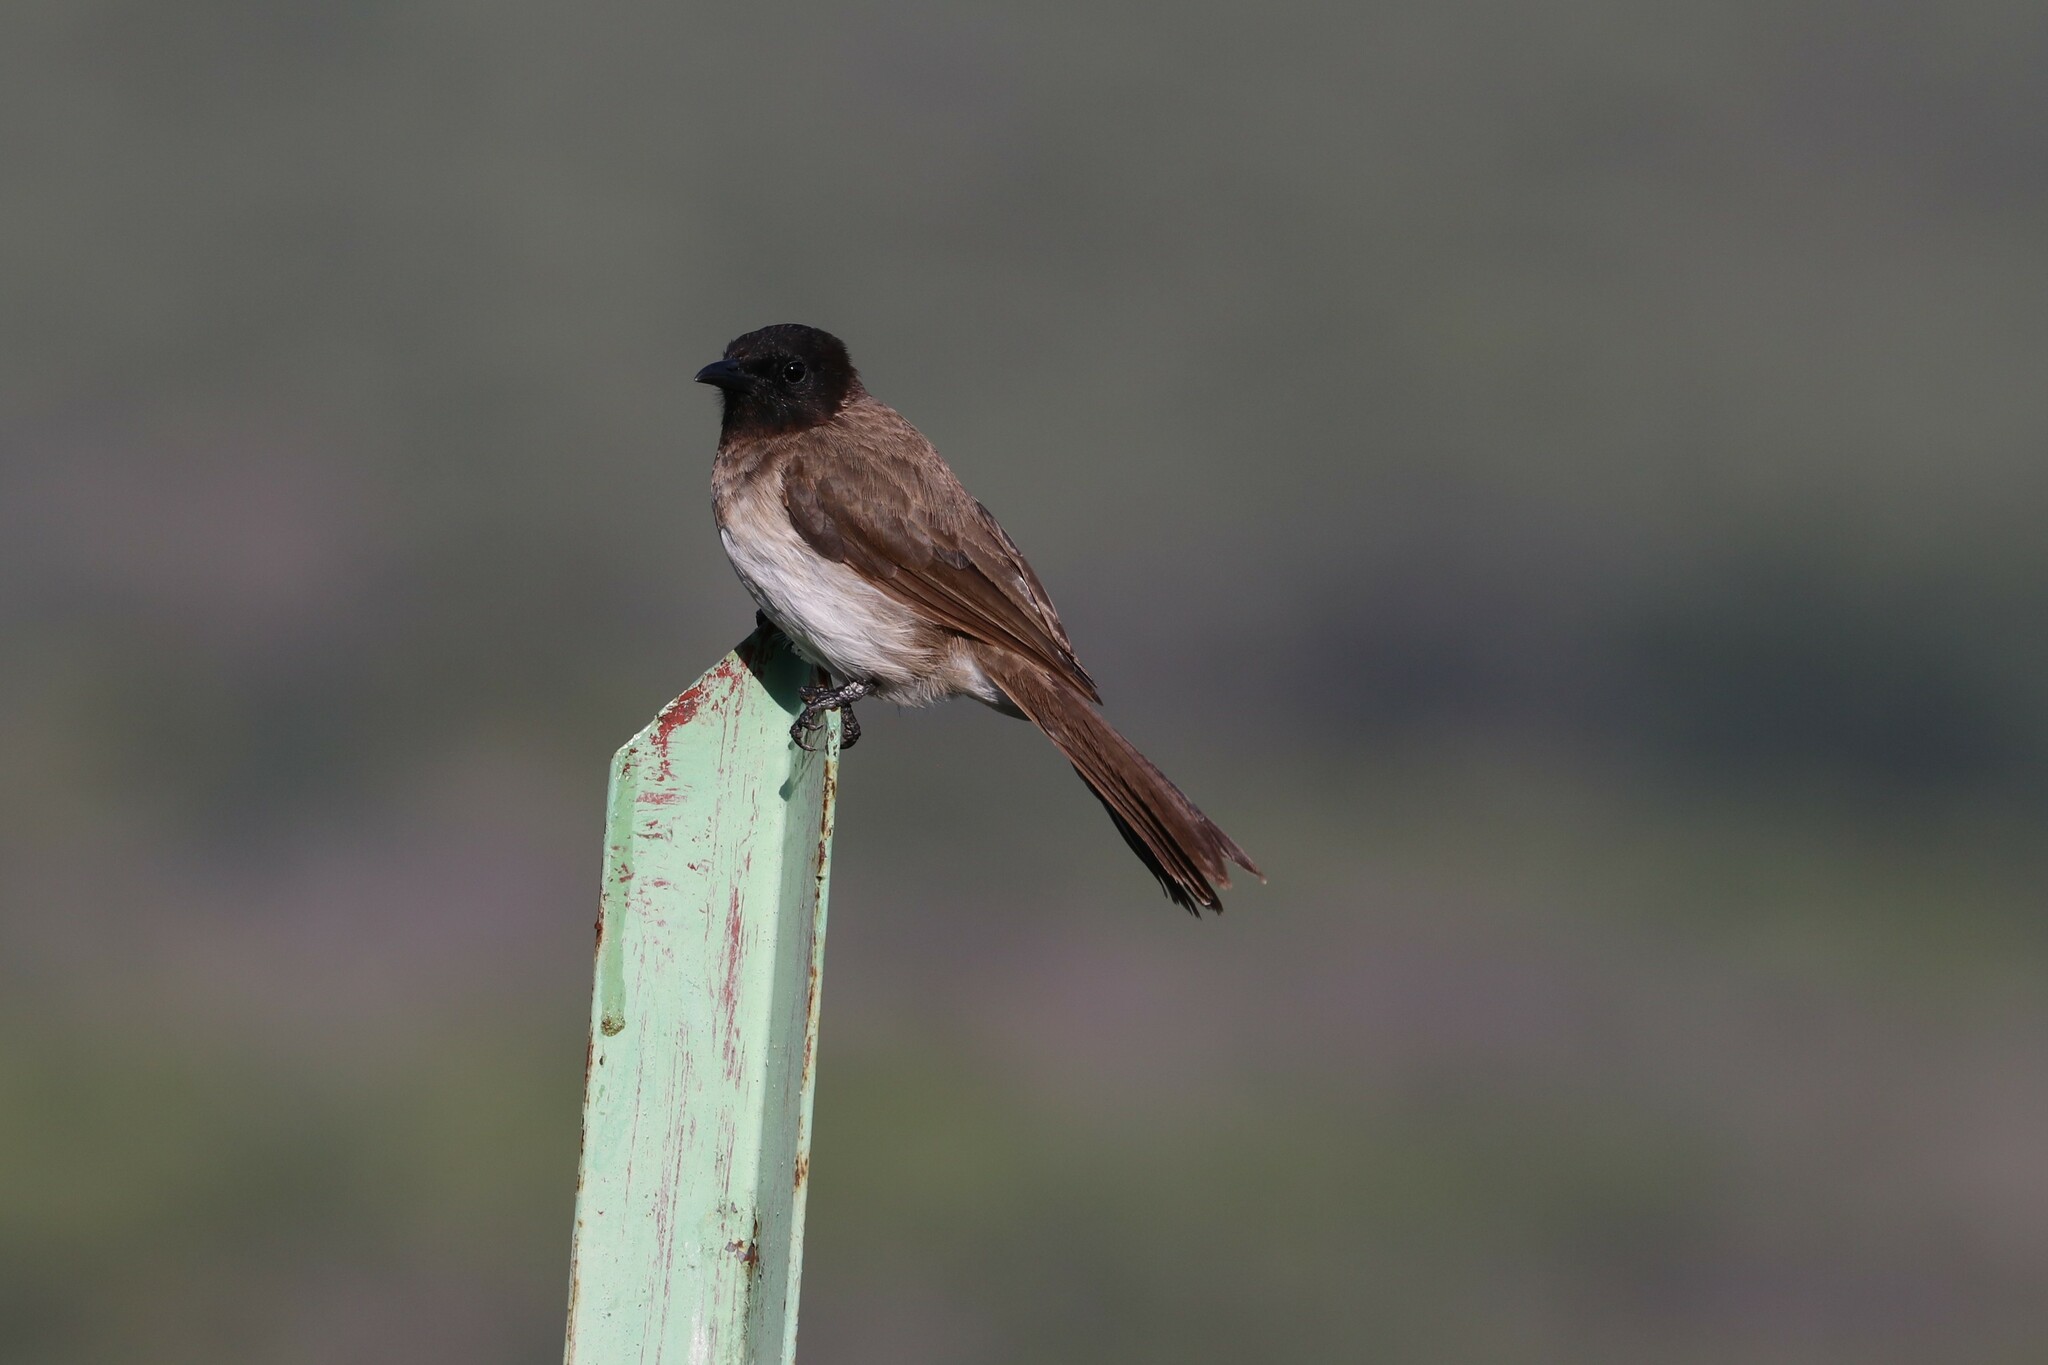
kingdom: Animalia
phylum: Chordata
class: Aves
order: Passeriformes
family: Pycnonotidae
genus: Pycnonotus
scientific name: Pycnonotus barbatus
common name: Common bulbul
